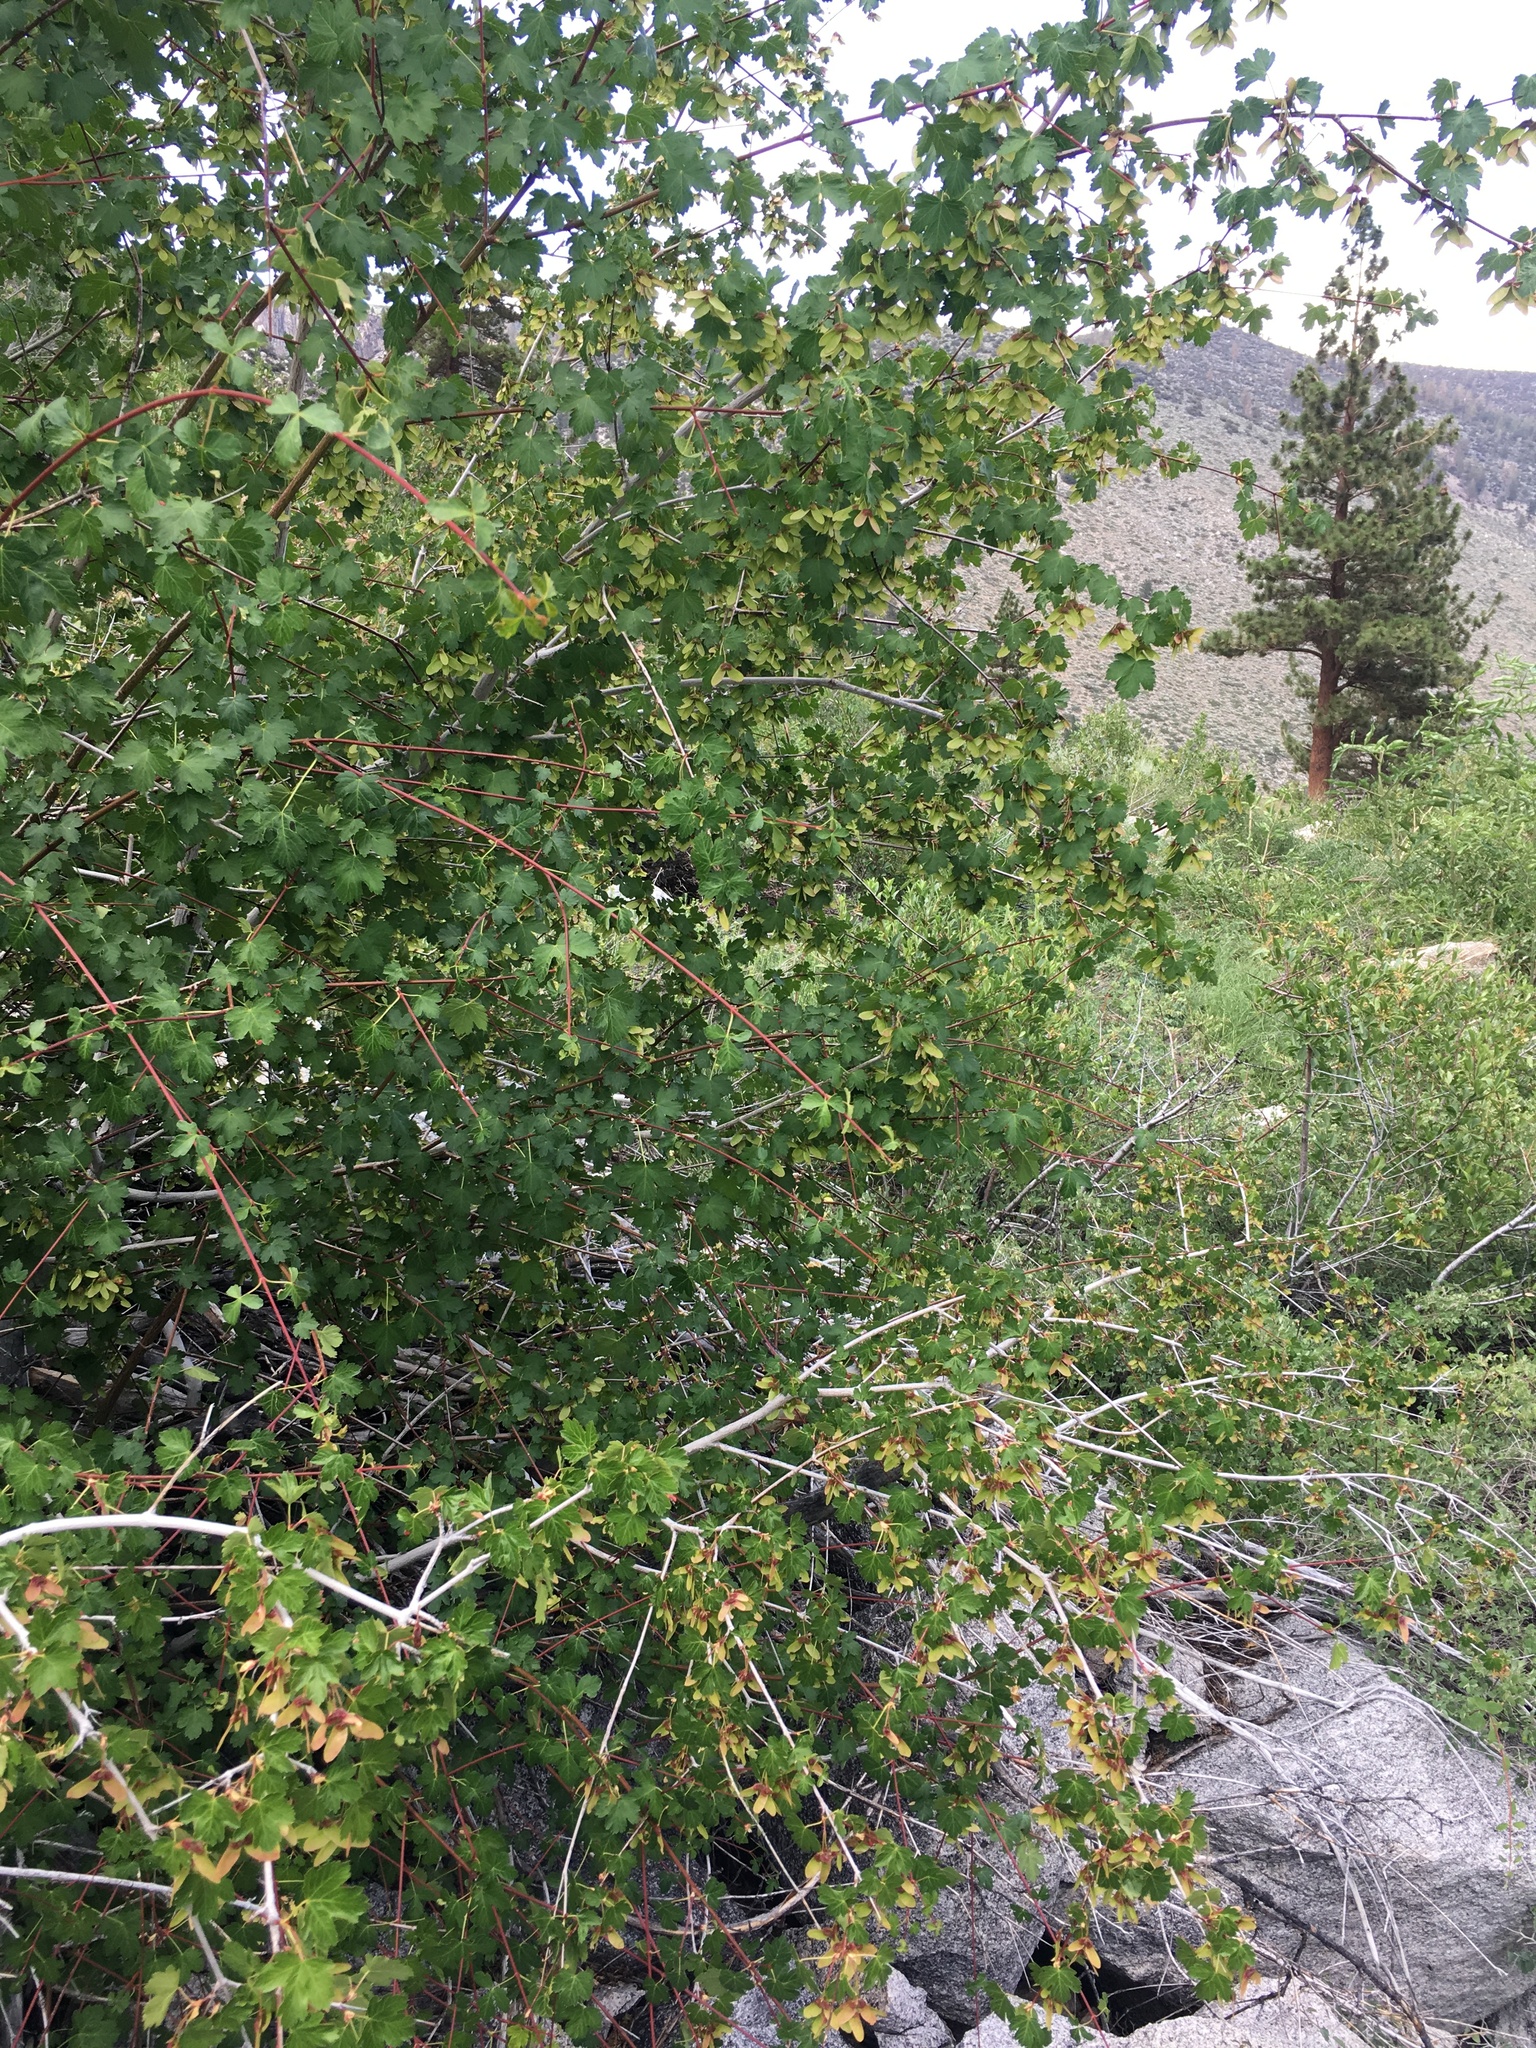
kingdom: Plantae
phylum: Tracheophyta
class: Magnoliopsida
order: Sapindales
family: Sapindaceae
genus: Acer
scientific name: Acer glabrum
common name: Rocky mountain maple
